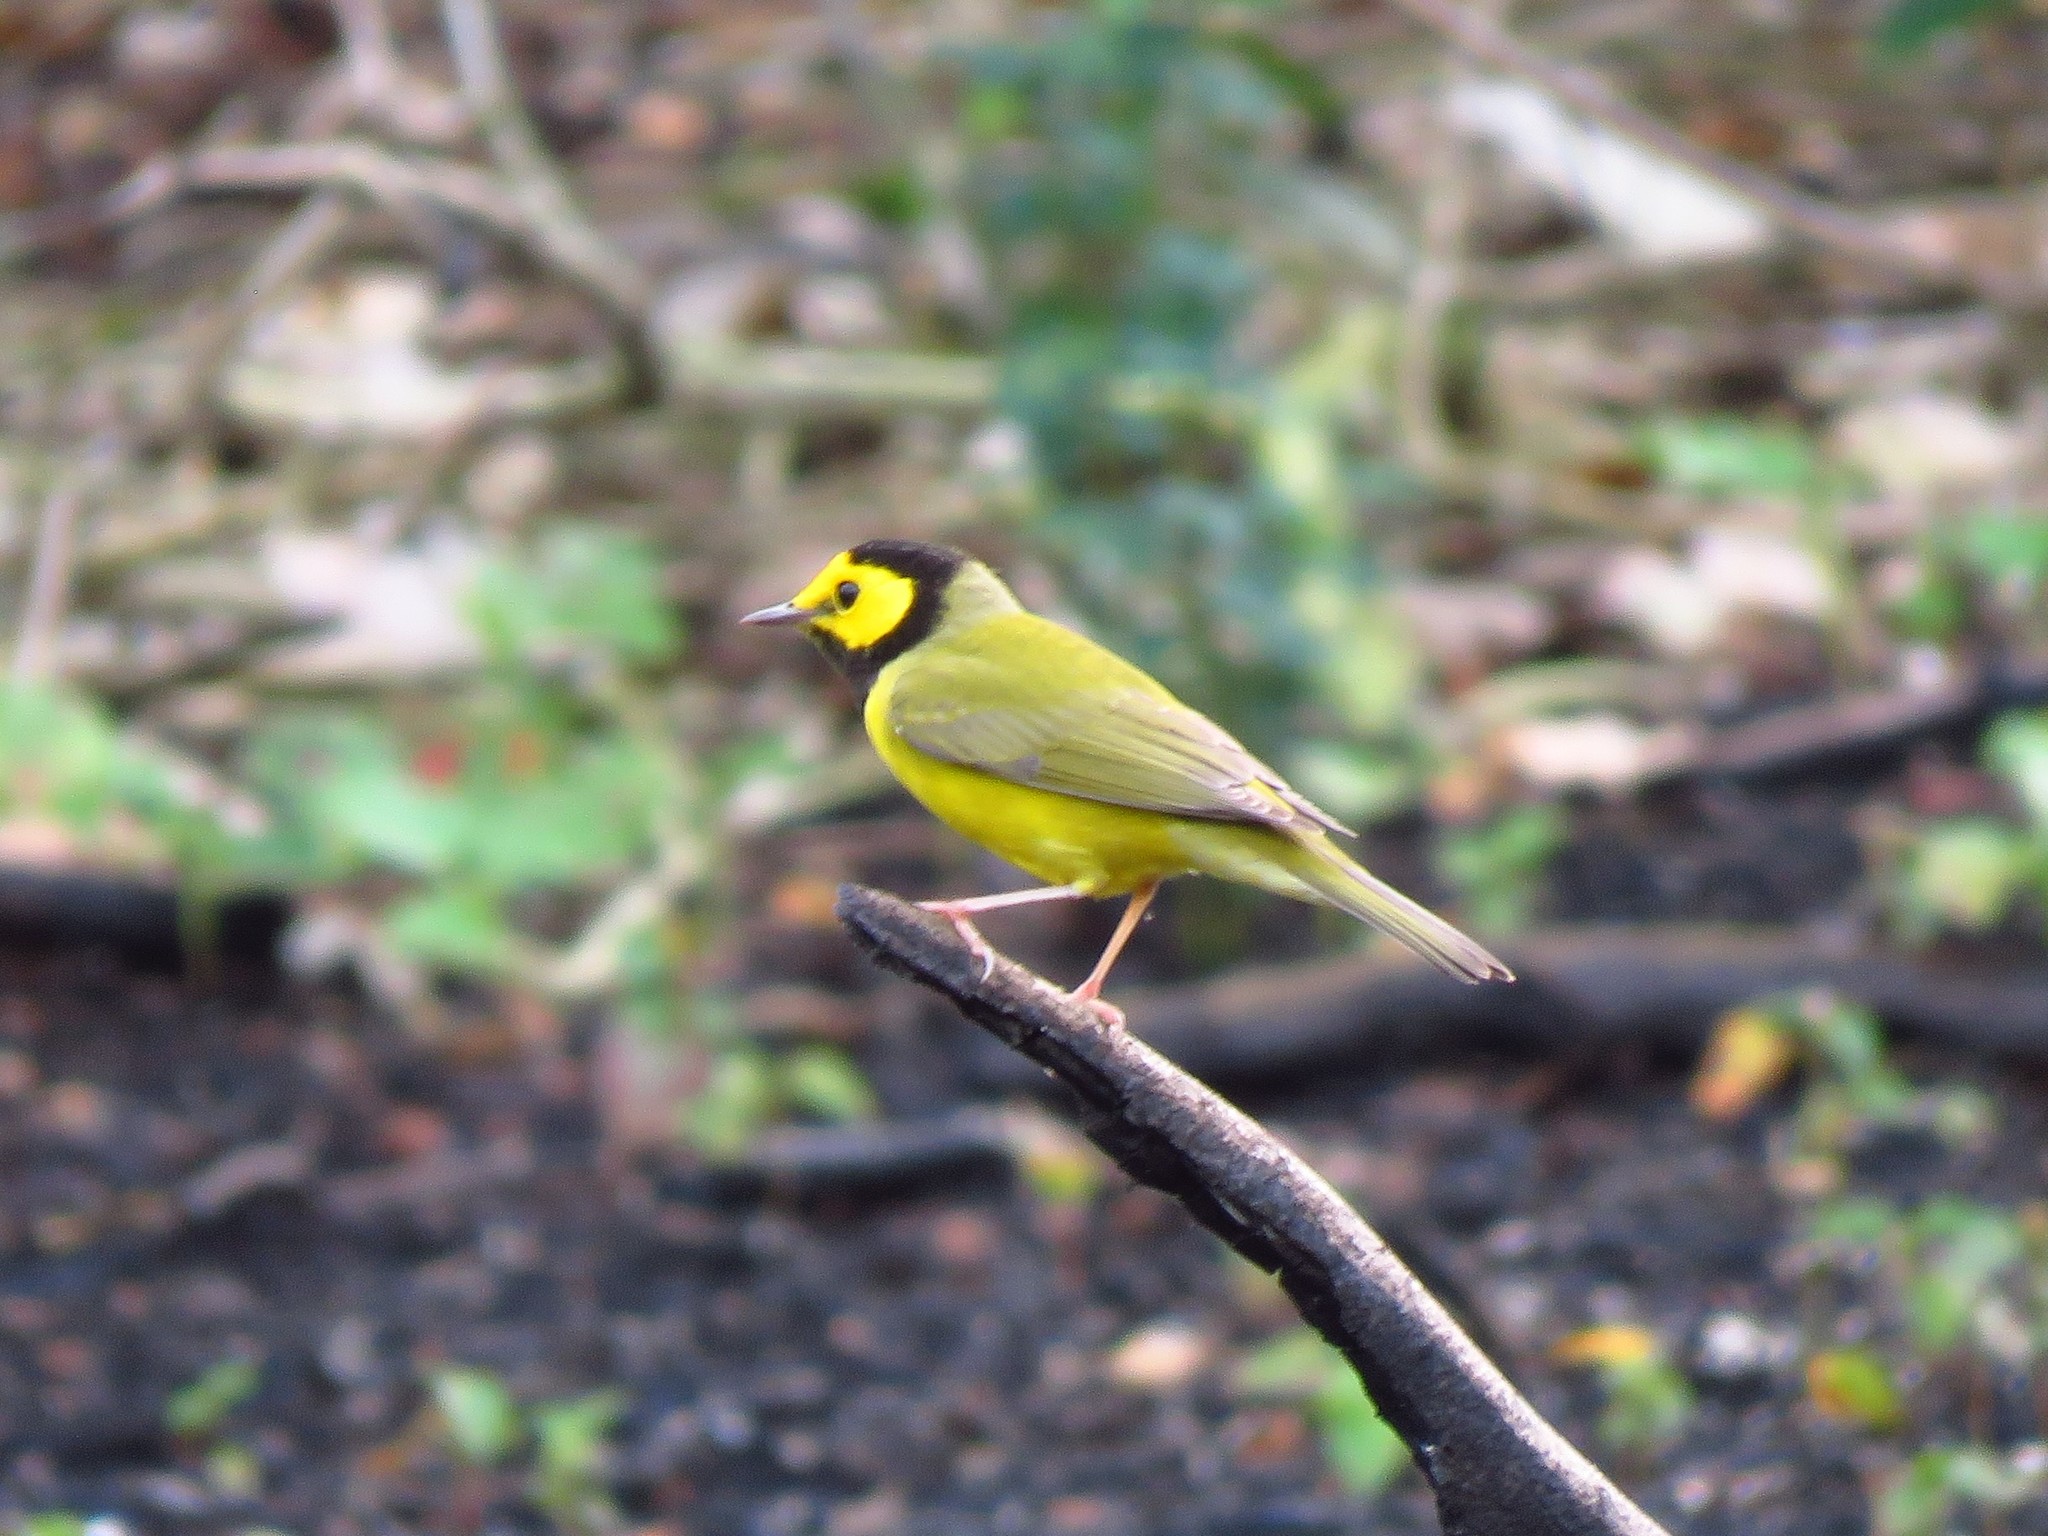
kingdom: Animalia
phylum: Chordata
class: Aves
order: Passeriformes
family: Parulidae
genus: Setophaga
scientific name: Setophaga citrina
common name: Hooded warbler
